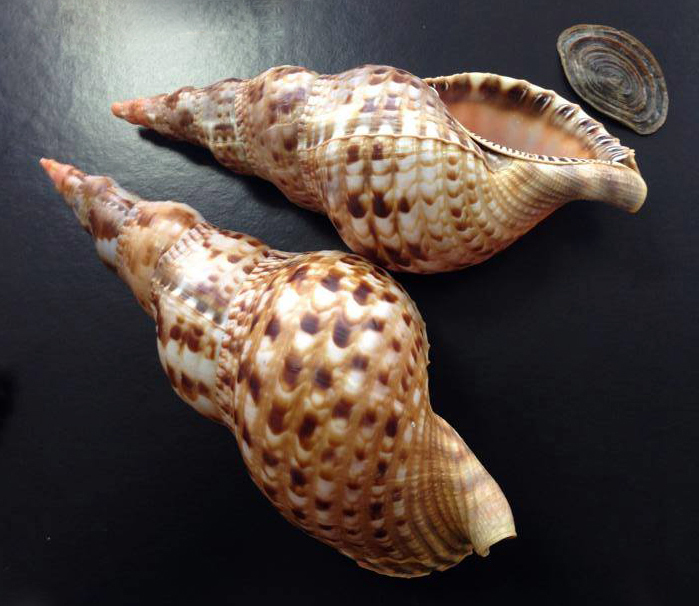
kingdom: Animalia
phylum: Mollusca
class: Gastropoda
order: Littorinimorpha
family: Charoniidae
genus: Charonia
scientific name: Charonia variegata
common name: Atlantic triton
